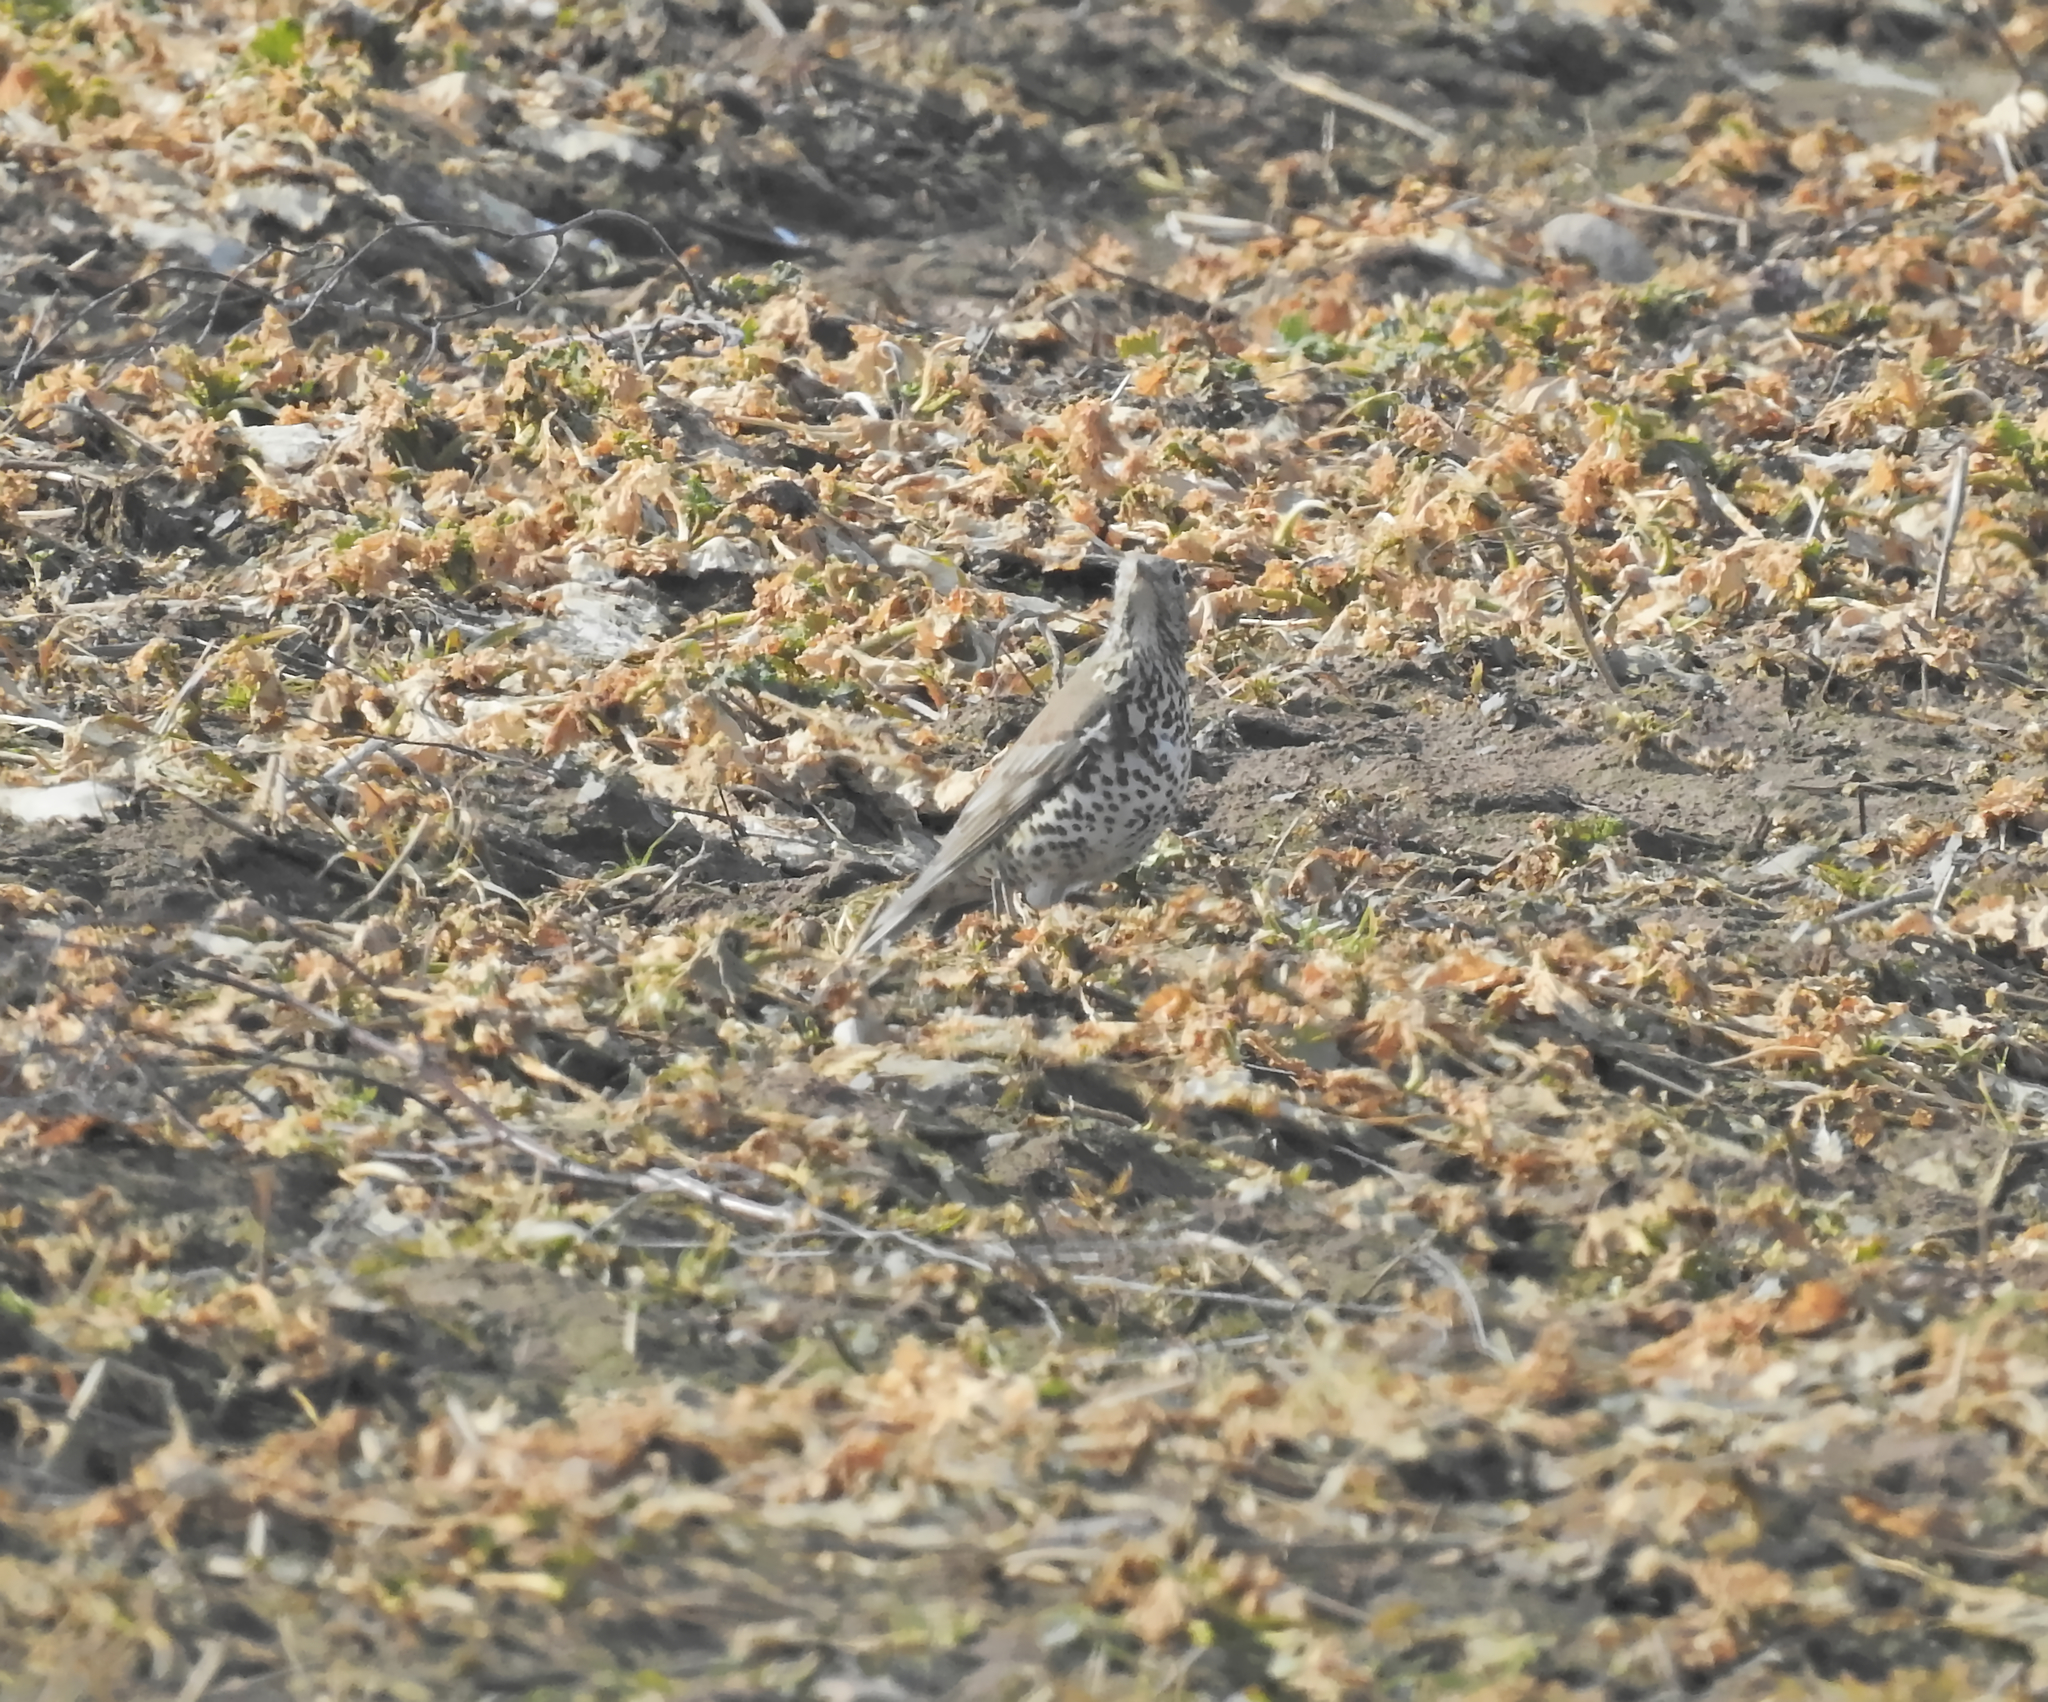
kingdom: Animalia
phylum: Chordata
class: Aves
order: Passeriformes
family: Turdidae
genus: Turdus
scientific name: Turdus viscivorus
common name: Mistle thrush
